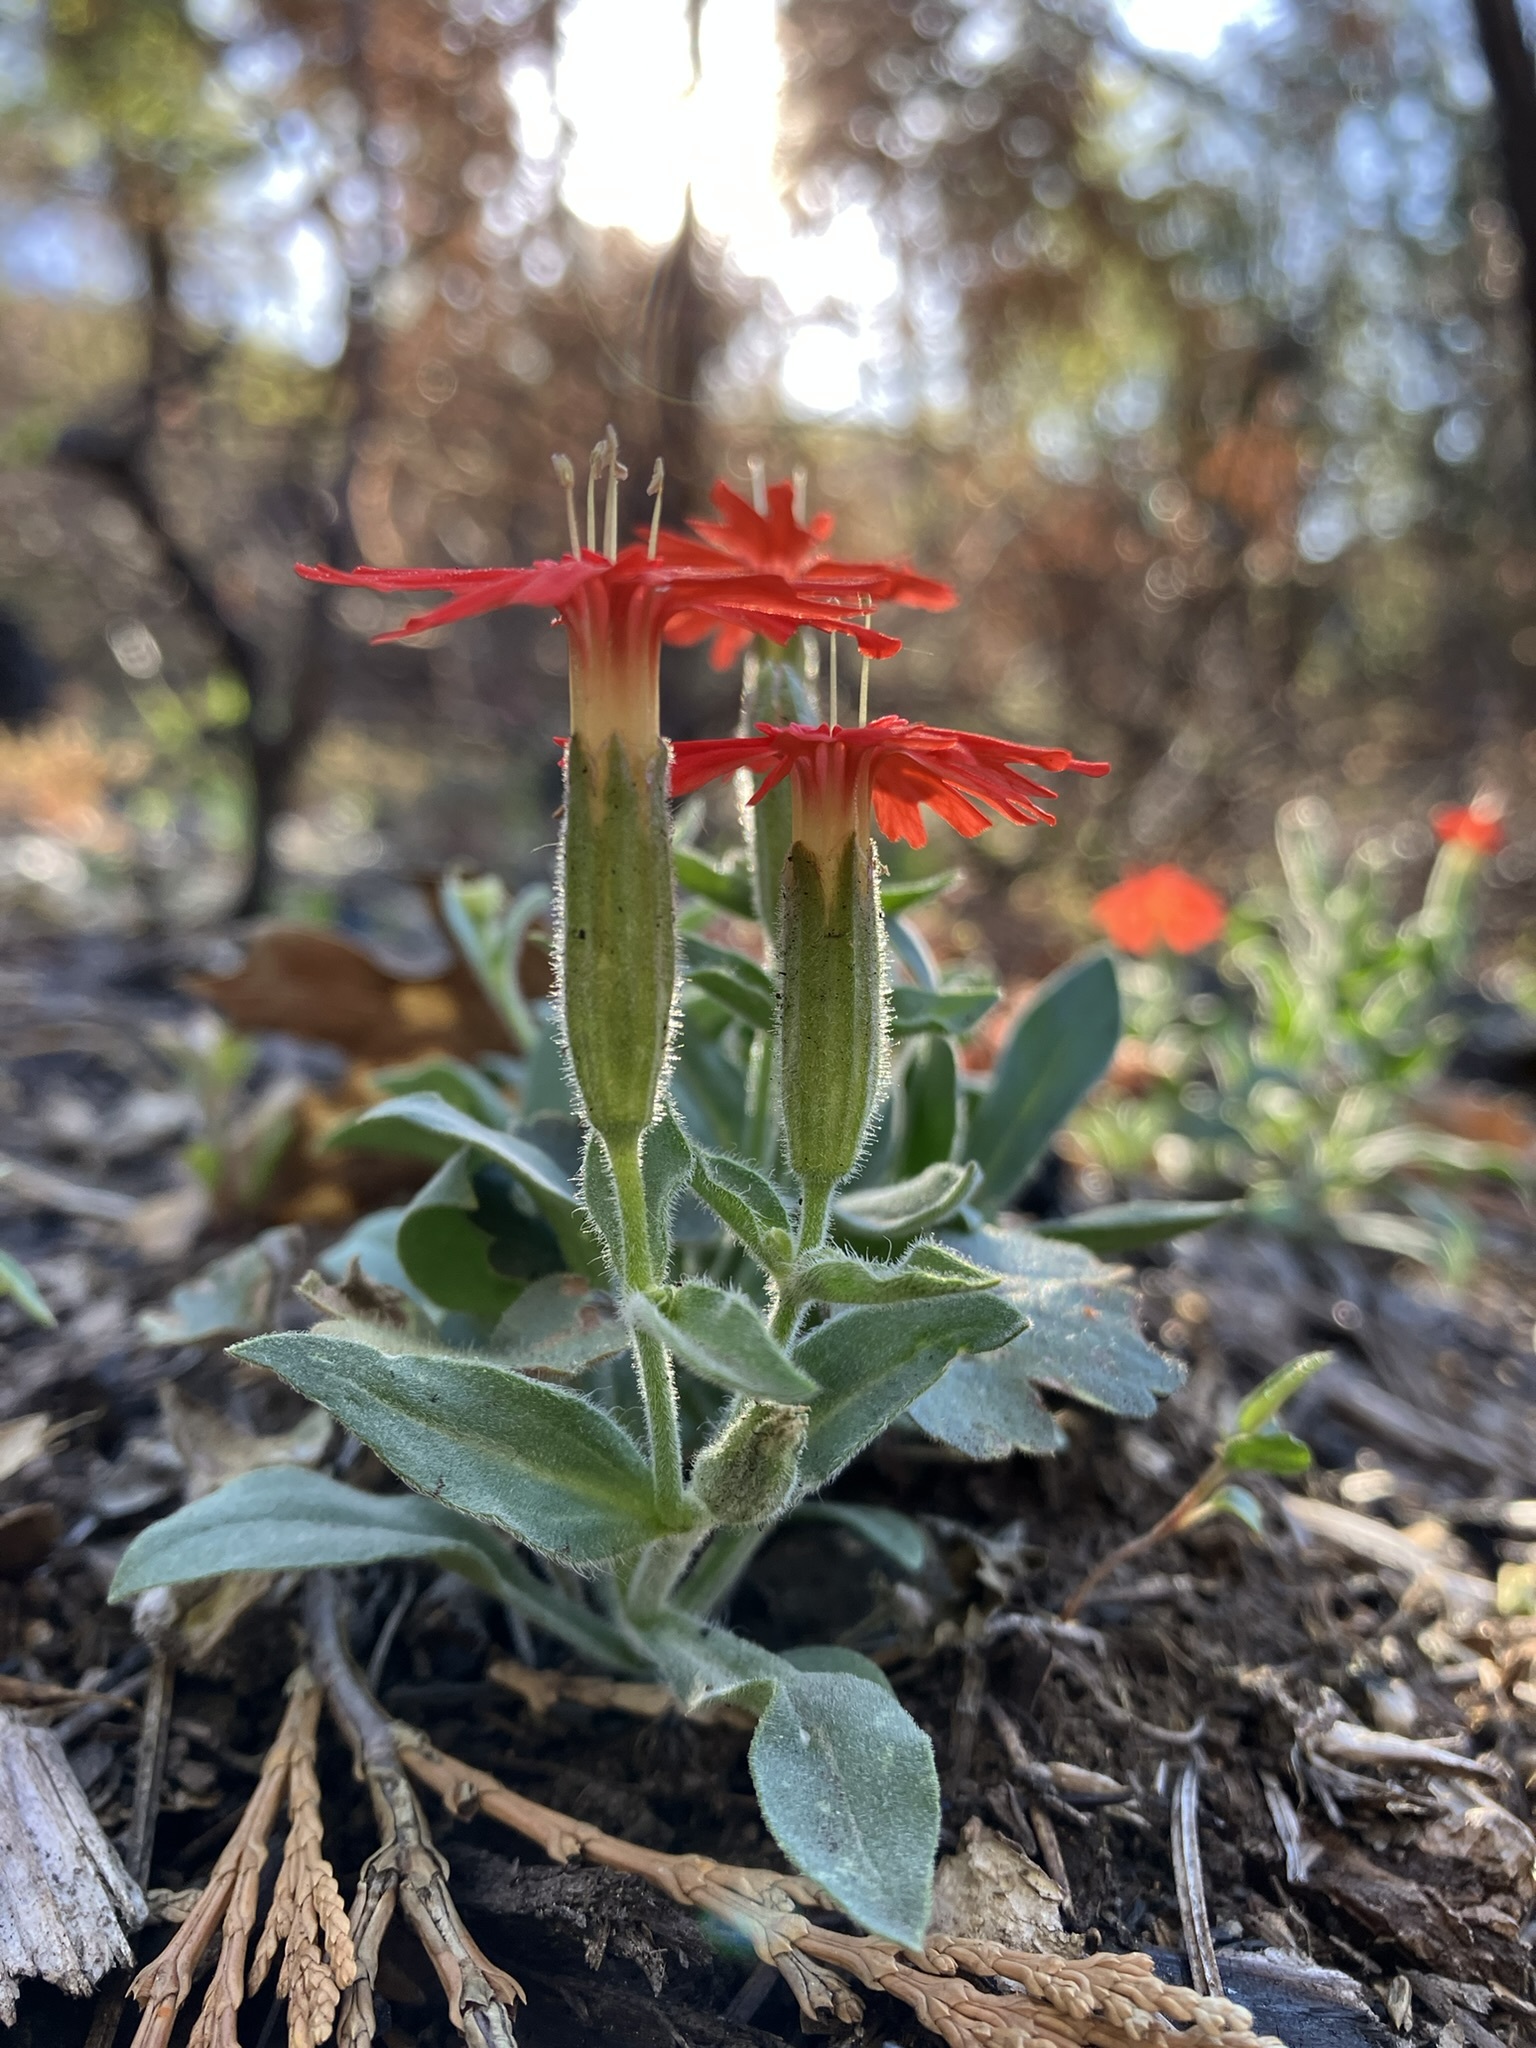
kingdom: Plantae
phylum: Tracheophyta
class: Magnoliopsida
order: Caryophyllales
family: Caryophyllaceae
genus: Silene
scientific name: Silene laciniata
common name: Indian-pink
